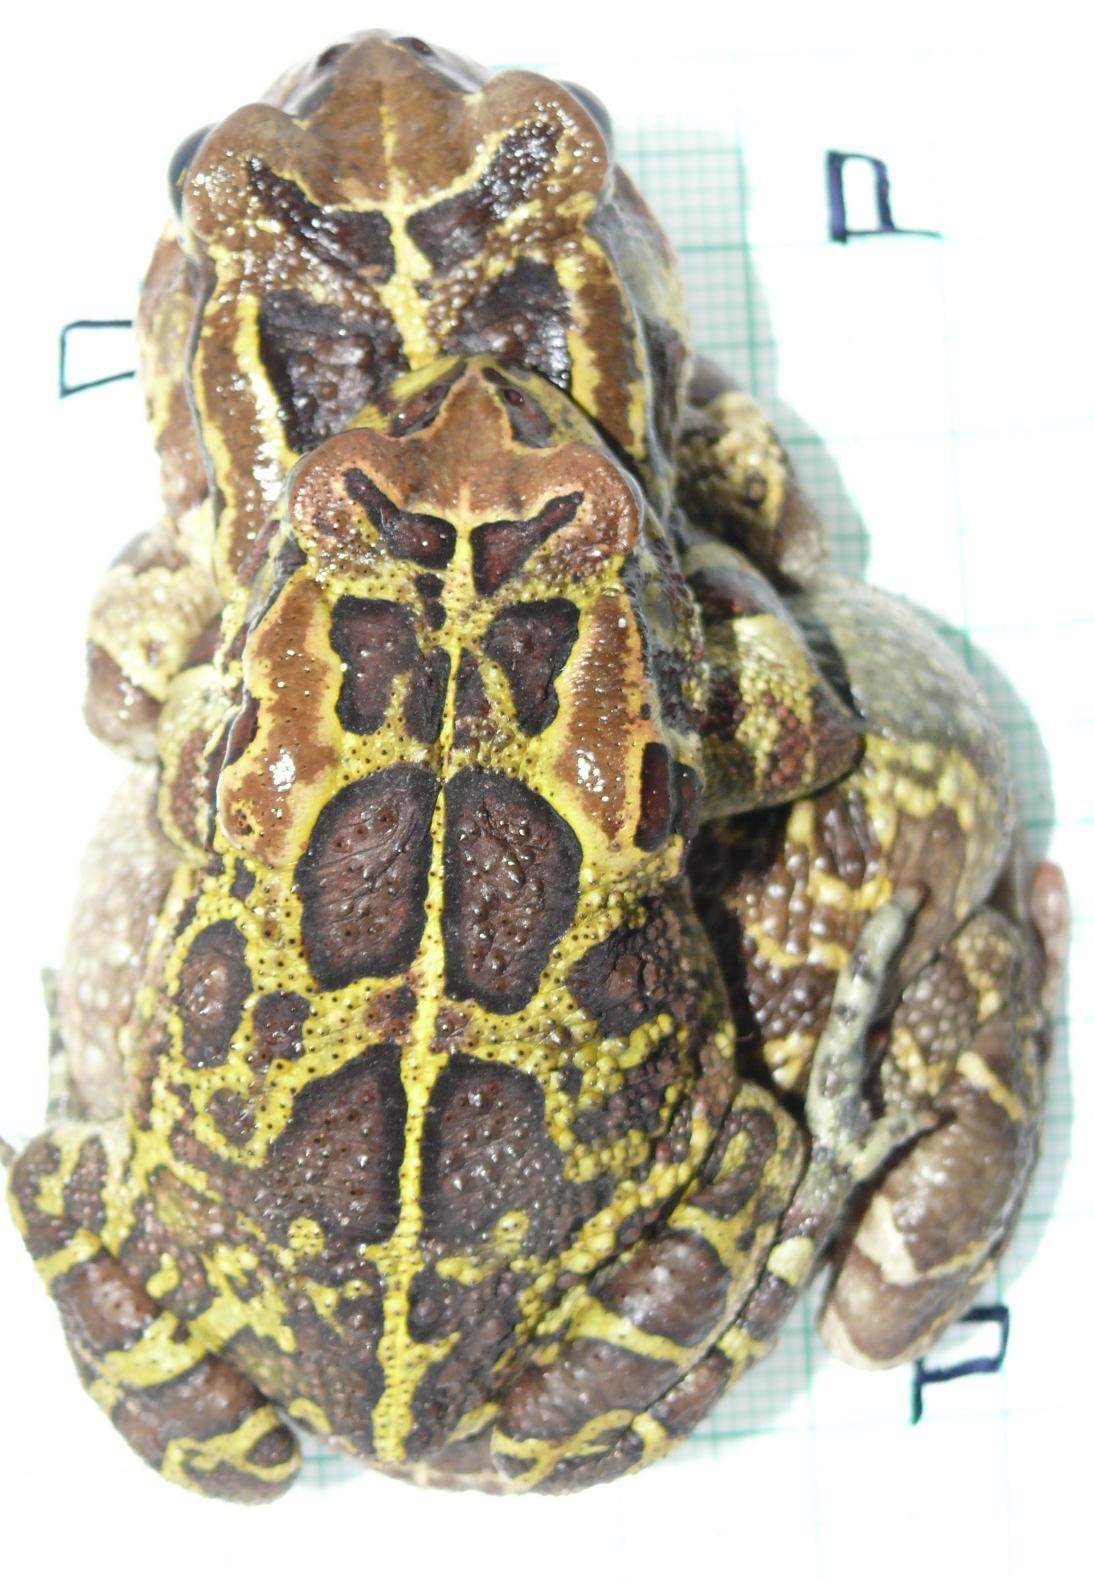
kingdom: Animalia
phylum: Chordata
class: Amphibia
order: Anura
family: Bufonidae
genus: Sclerophrys
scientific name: Sclerophrys pantherina
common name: Panther toad
